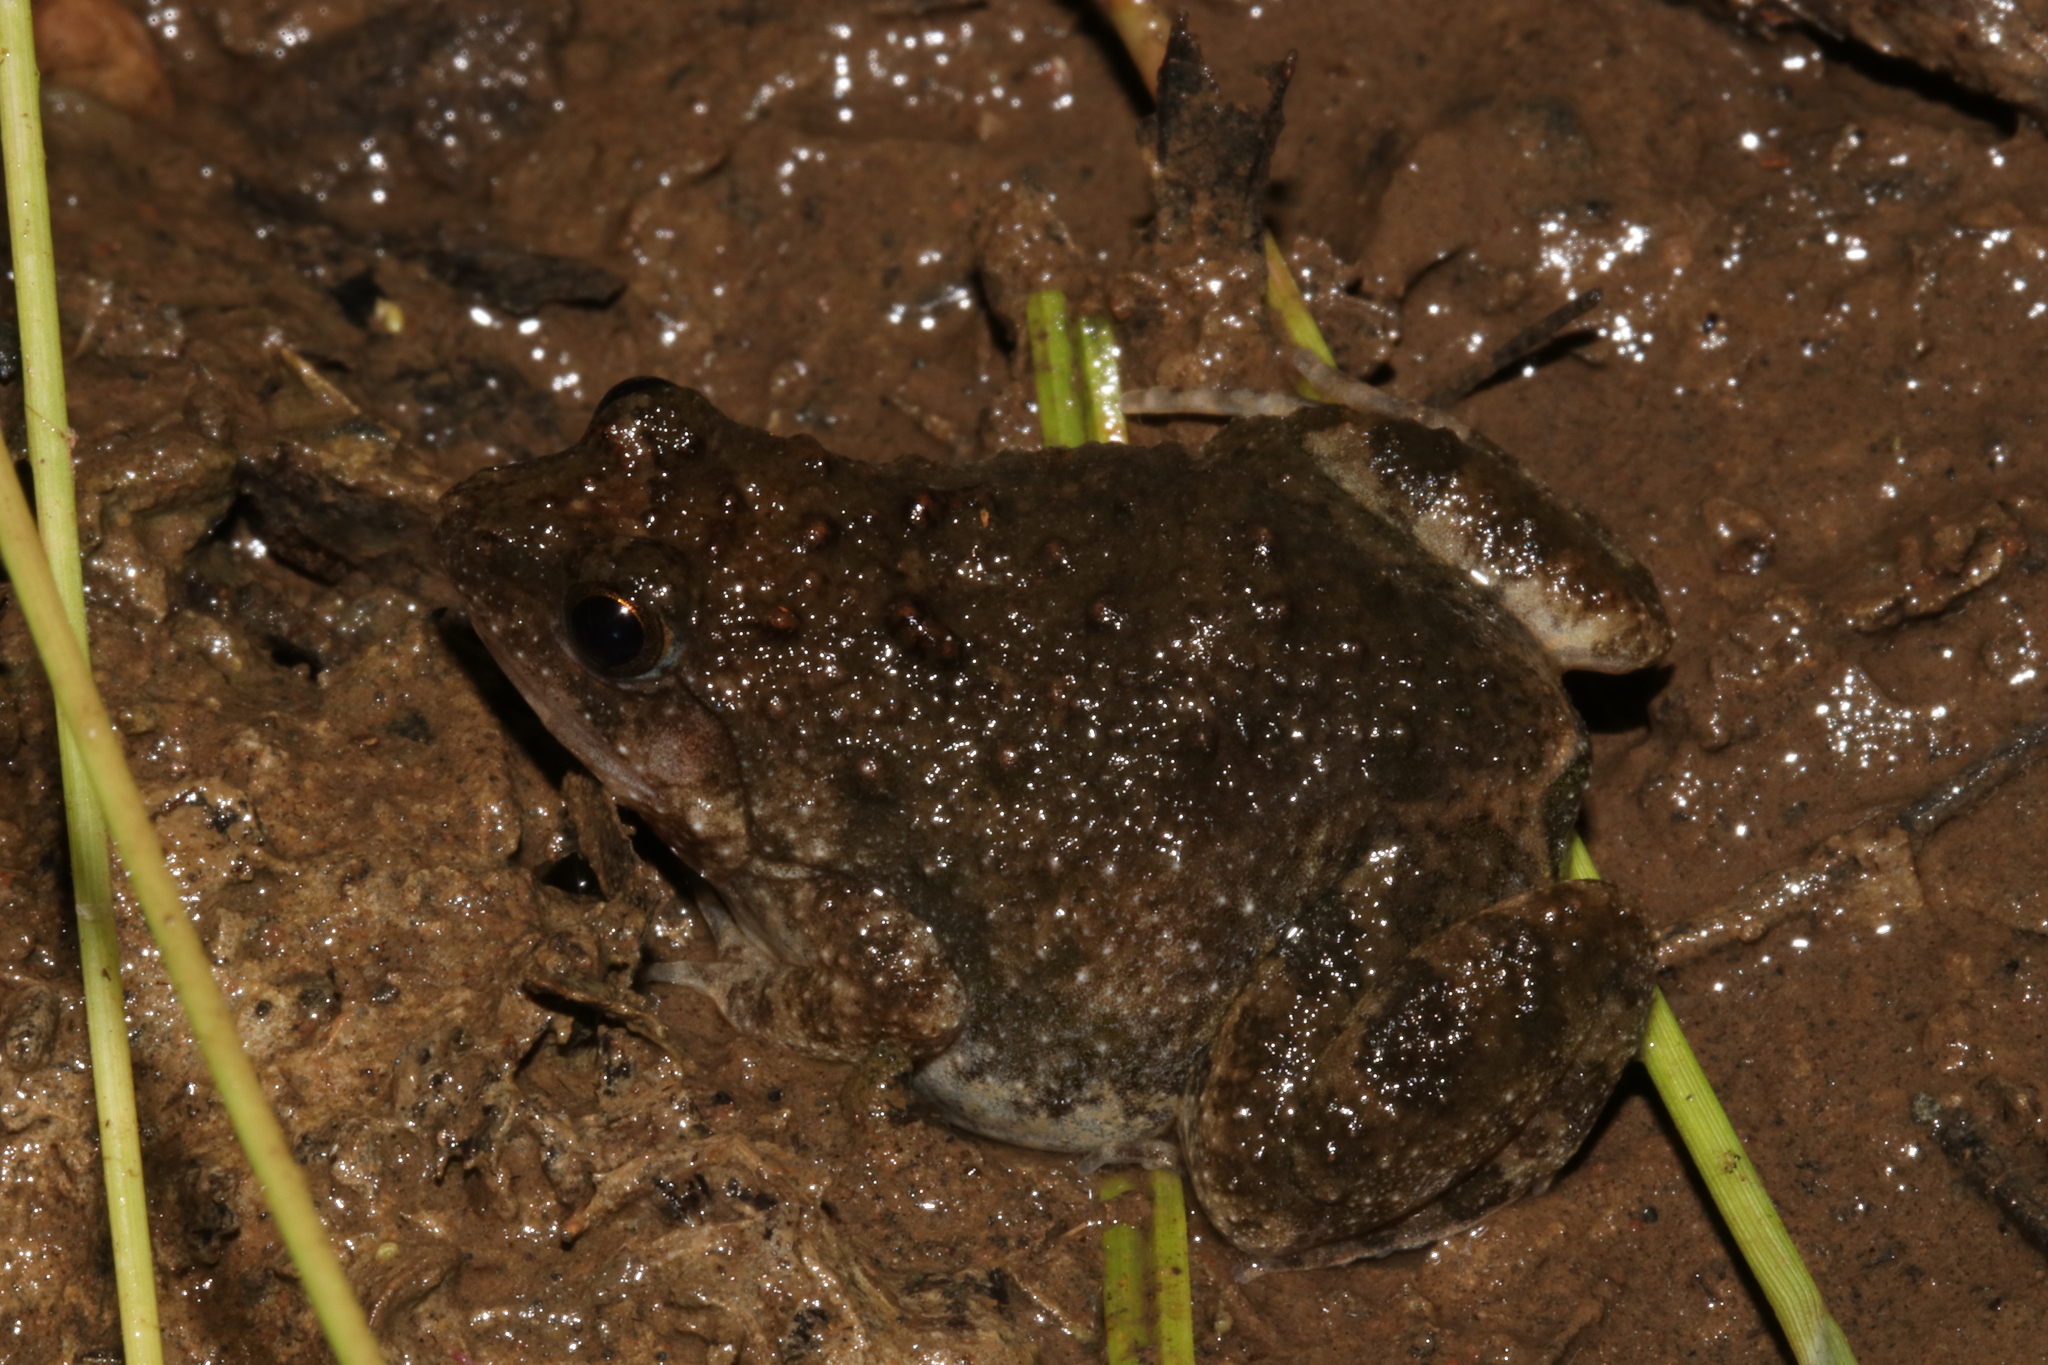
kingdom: Animalia
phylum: Chordata
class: Amphibia
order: Anura
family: Phrynobatrachidae
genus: Phrynobatrachus
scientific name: Phrynobatrachus natalensis
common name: Snoring puddle frog
